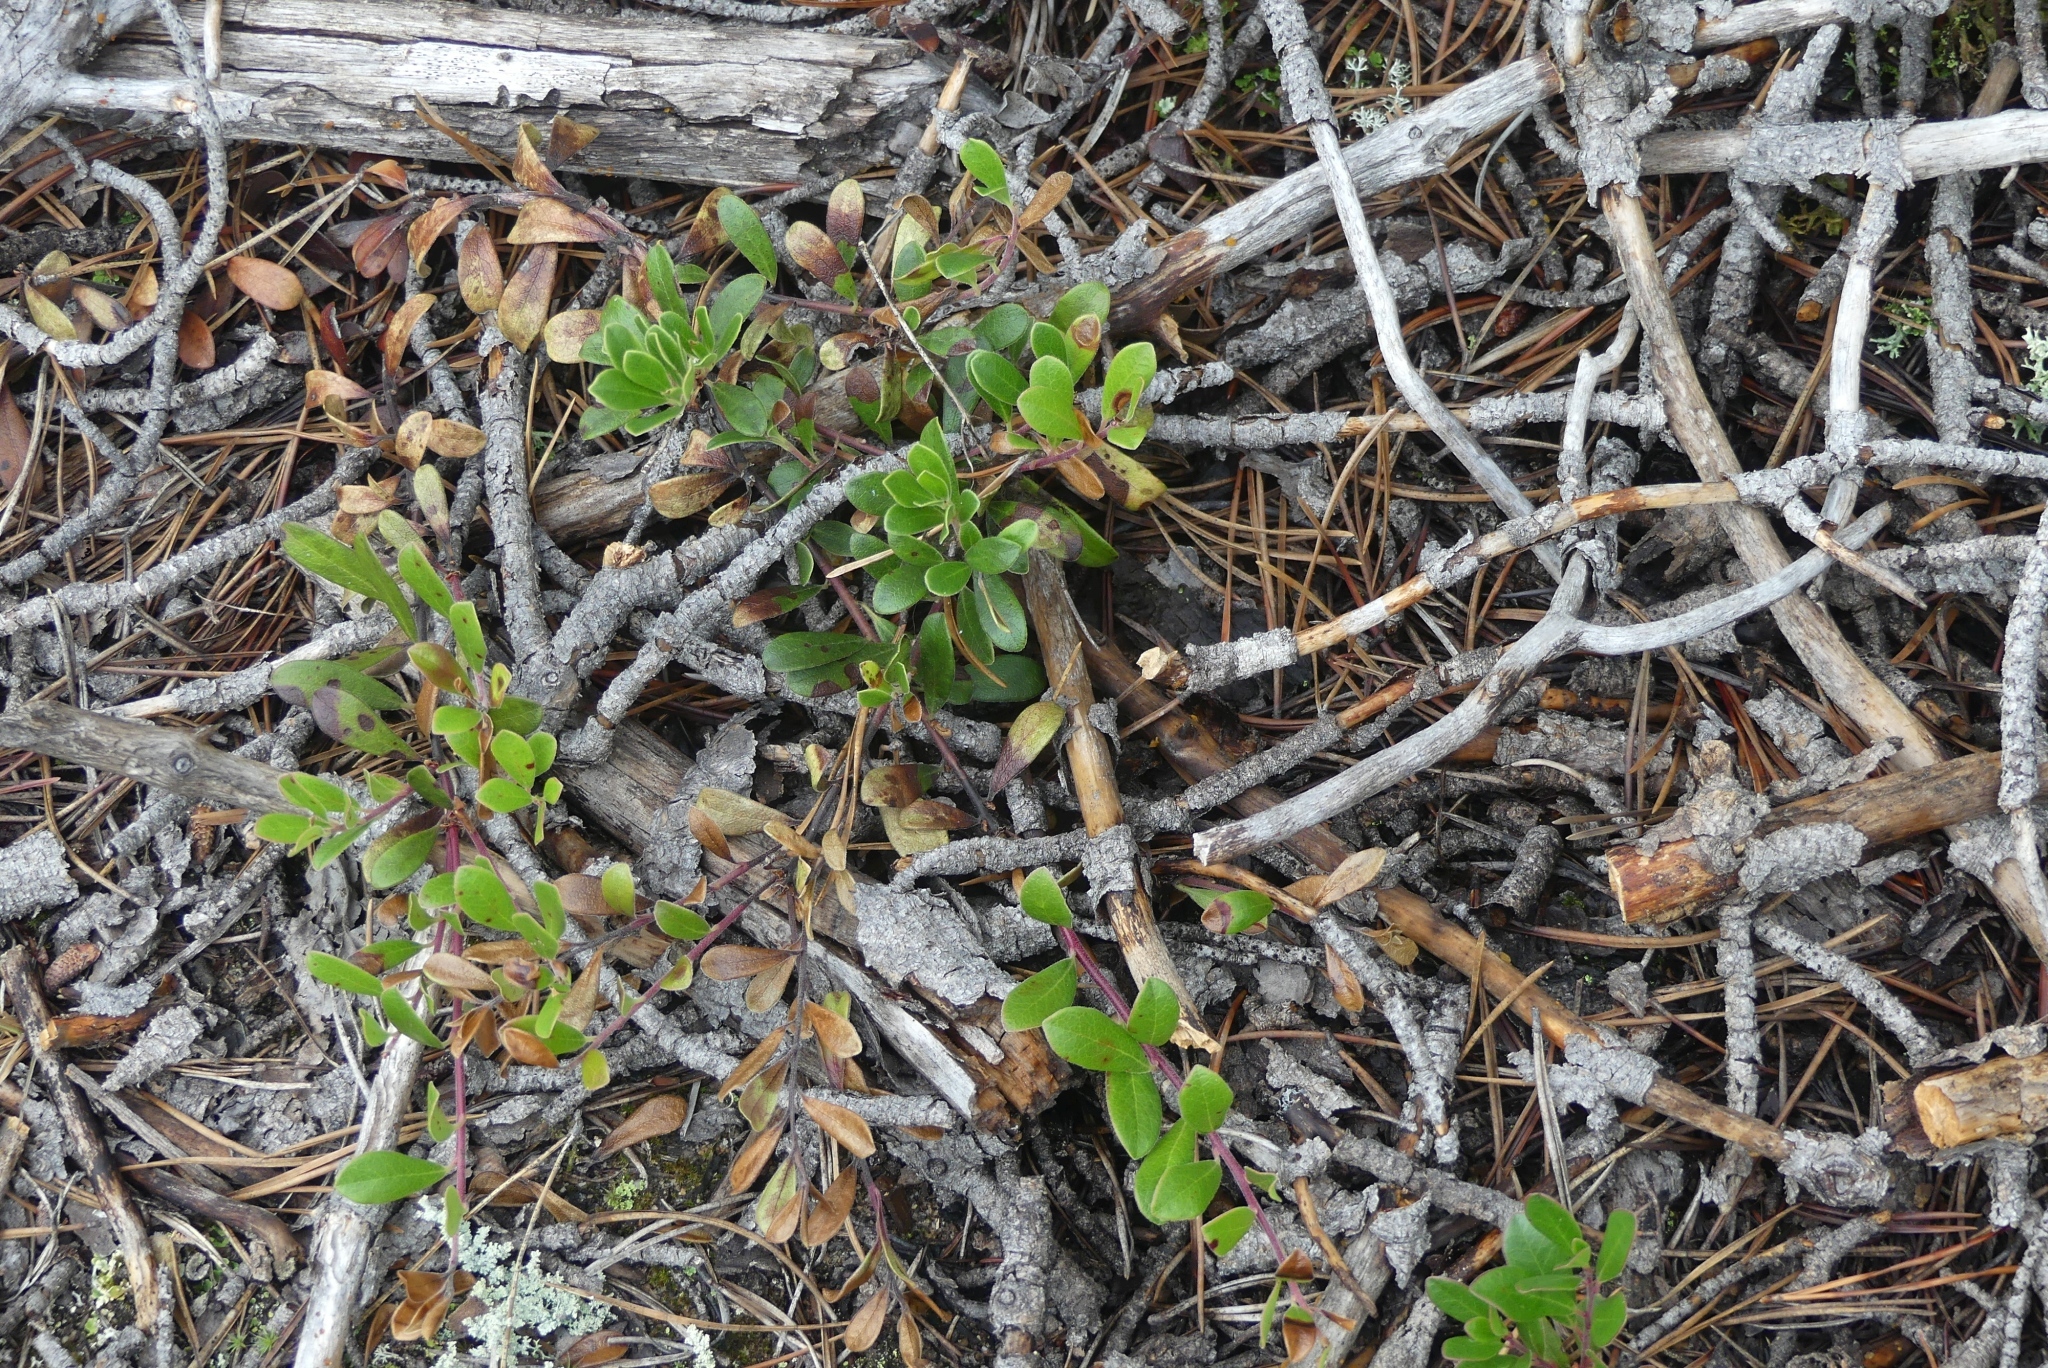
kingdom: Plantae
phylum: Tracheophyta
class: Magnoliopsida
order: Ericales
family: Ericaceae
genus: Arctostaphylos
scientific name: Arctostaphylos uva-ursi
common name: Bearberry
